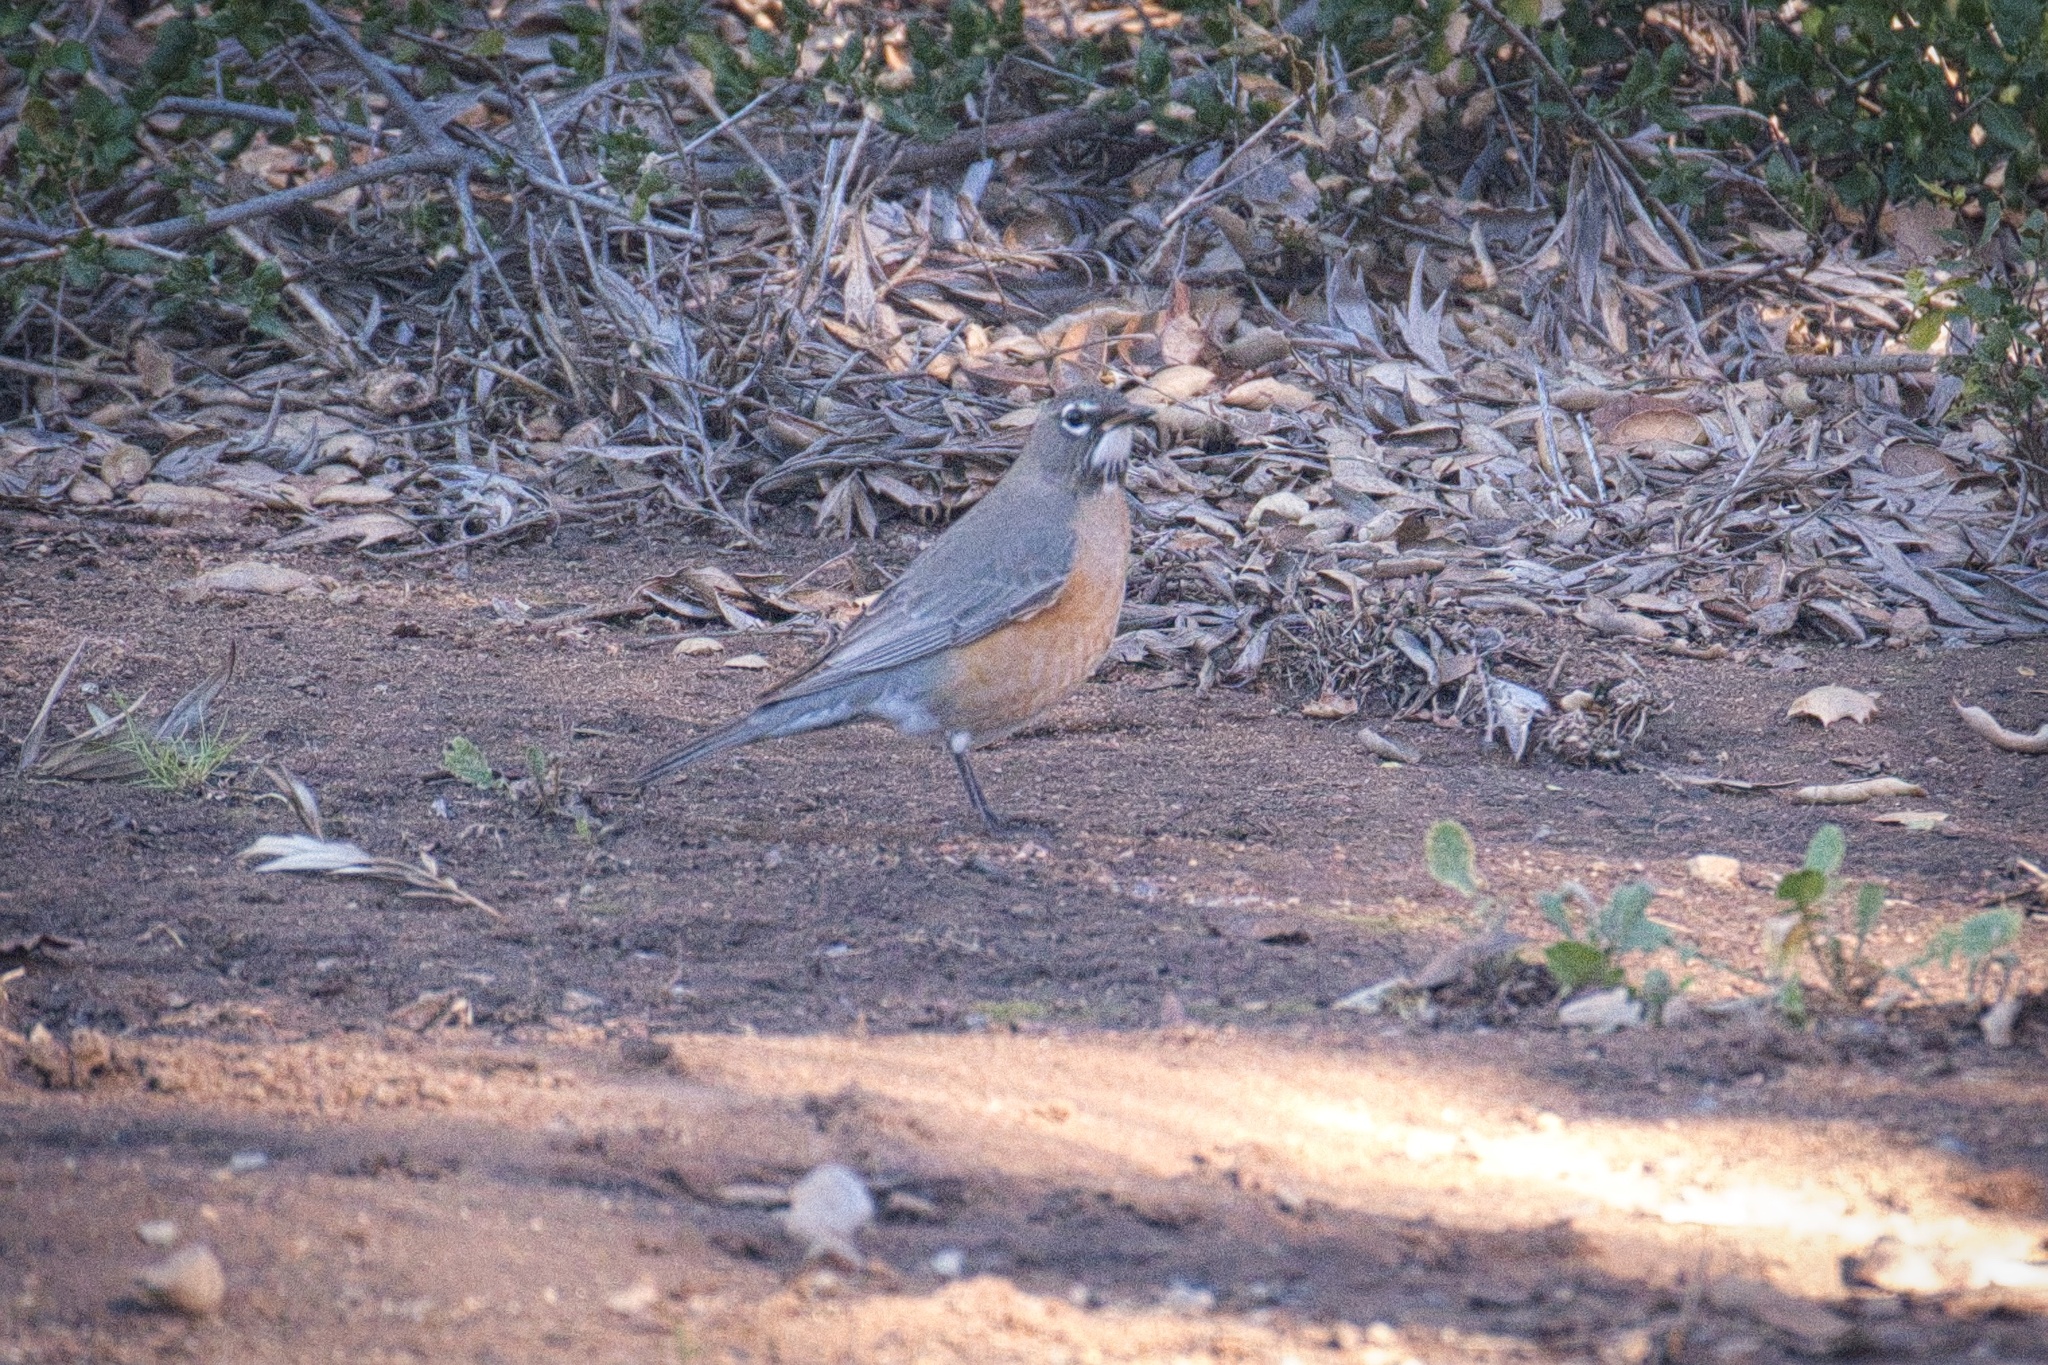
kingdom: Animalia
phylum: Chordata
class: Aves
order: Passeriformes
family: Turdidae
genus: Turdus
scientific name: Turdus migratorius
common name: American robin
